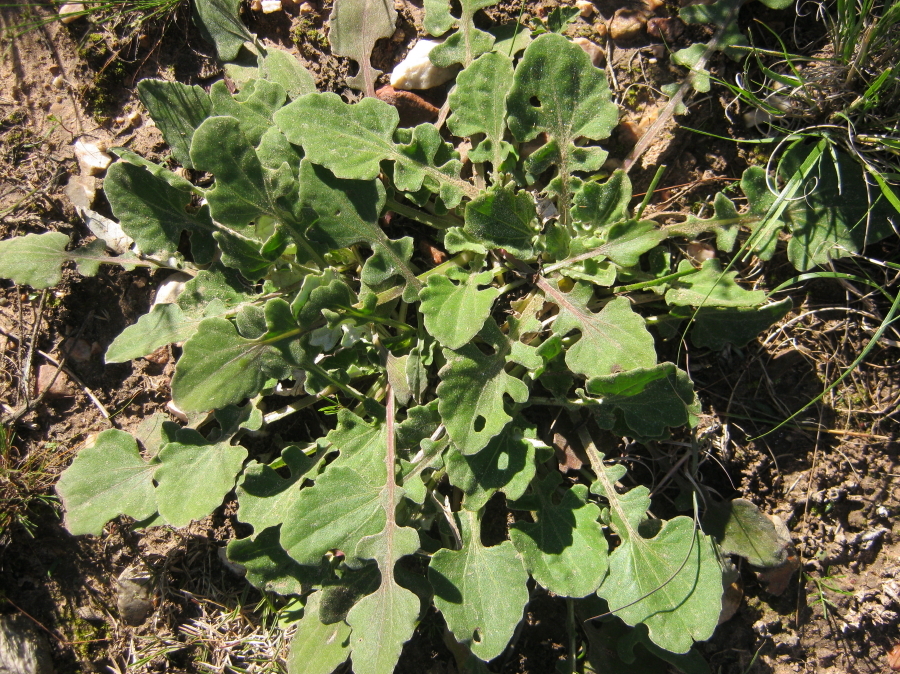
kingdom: Plantae
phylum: Tracheophyta
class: Magnoliopsida
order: Asterales
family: Asteraceae
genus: Arctotis
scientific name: Arctotis acaulis
